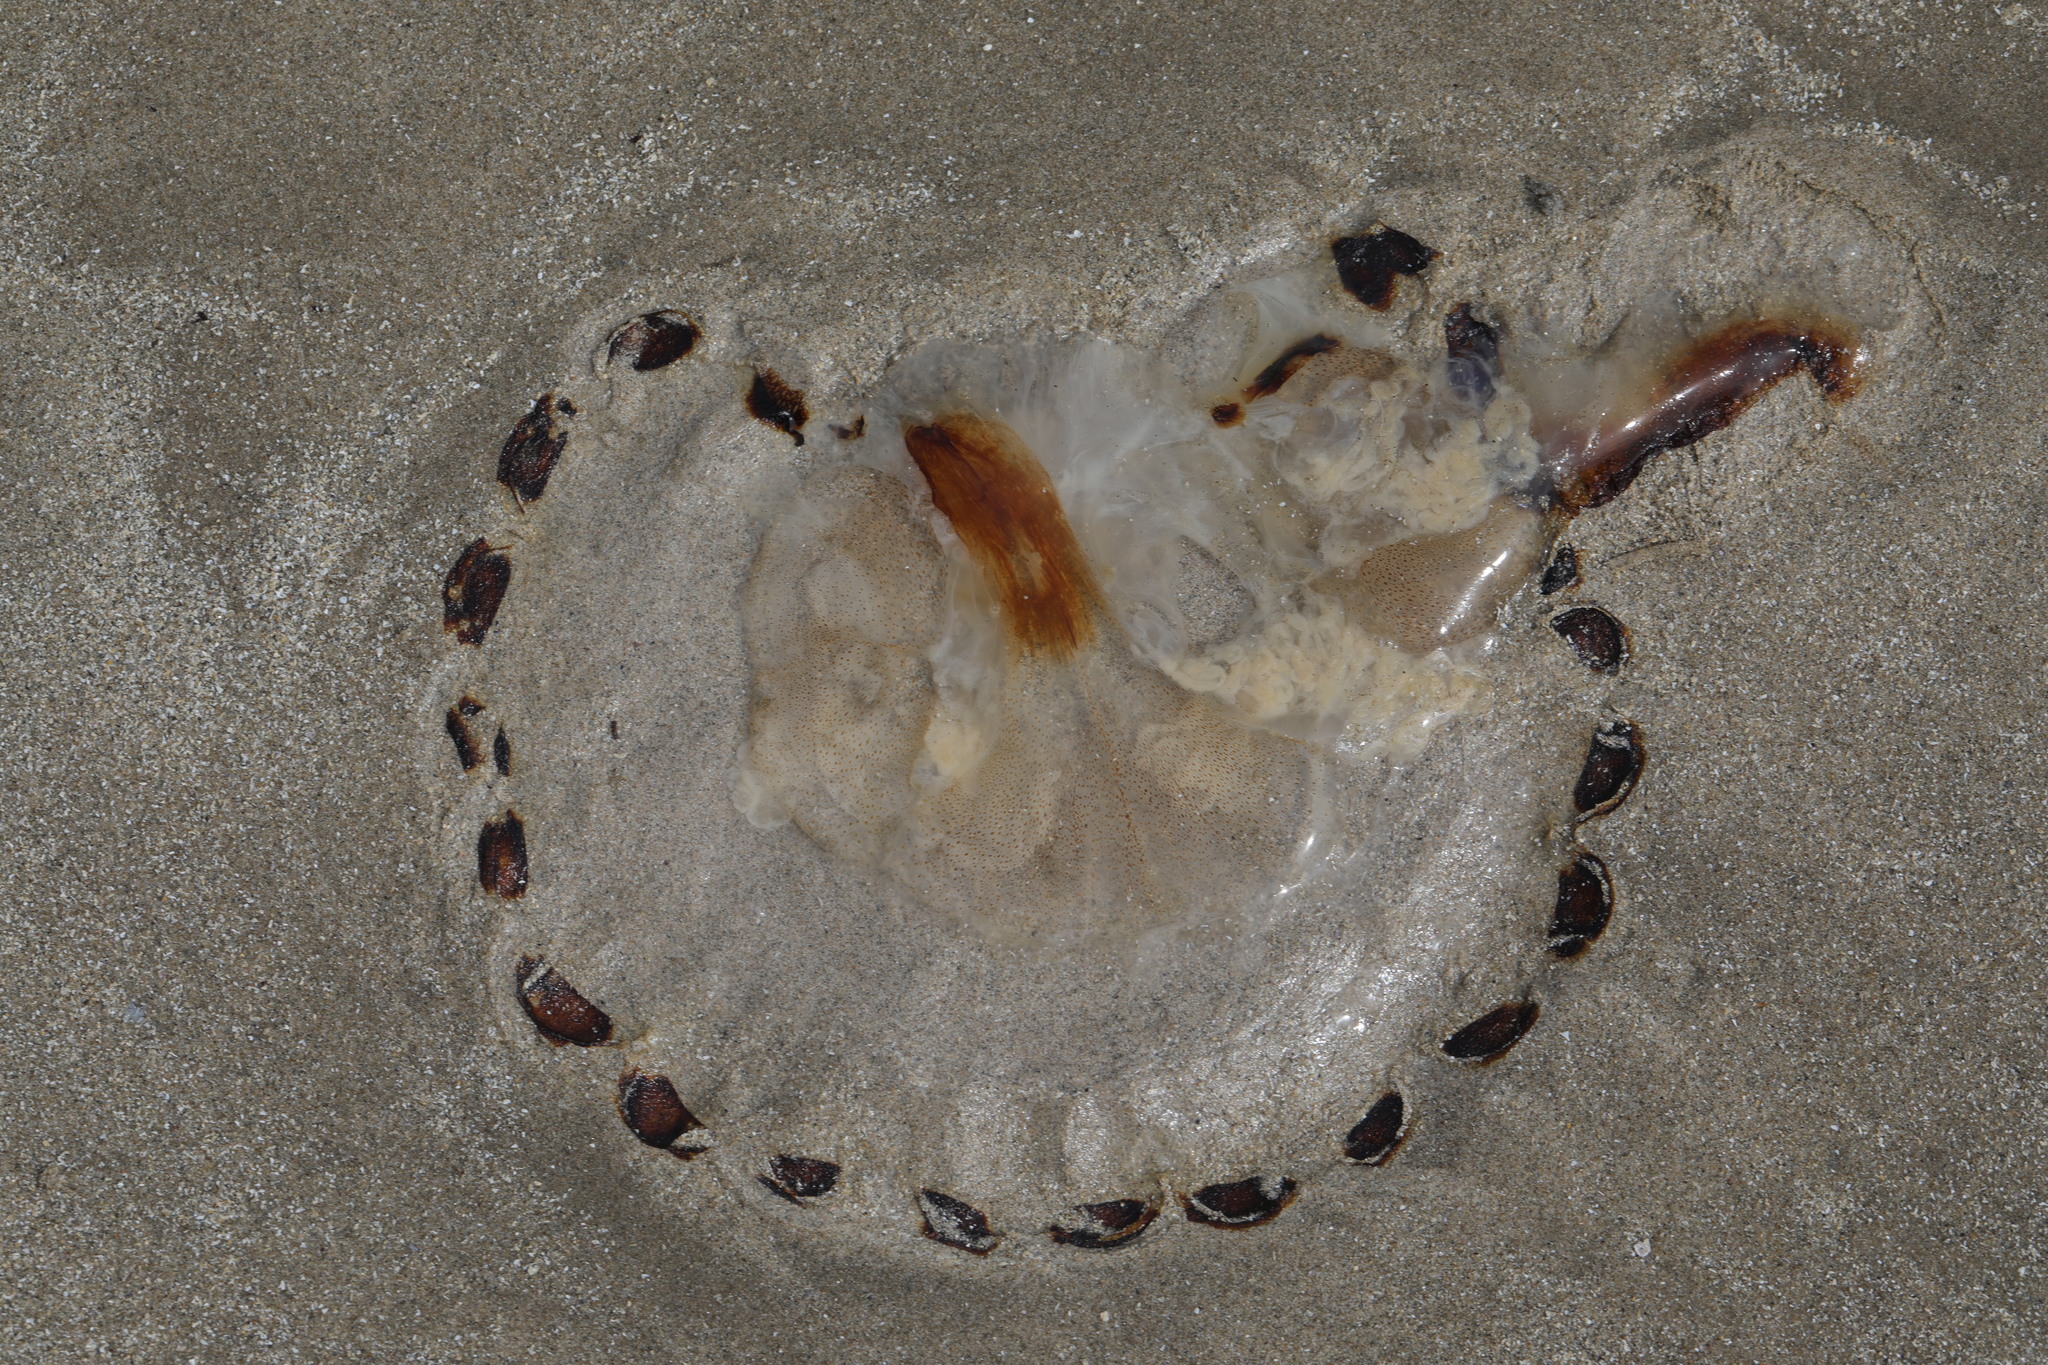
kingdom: Animalia
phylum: Cnidaria
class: Scyphozoa
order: Semaeostomeae
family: Pelagiidae
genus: Chrysaora
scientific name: Chrysaora hysoscella
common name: Compass jellyfish
